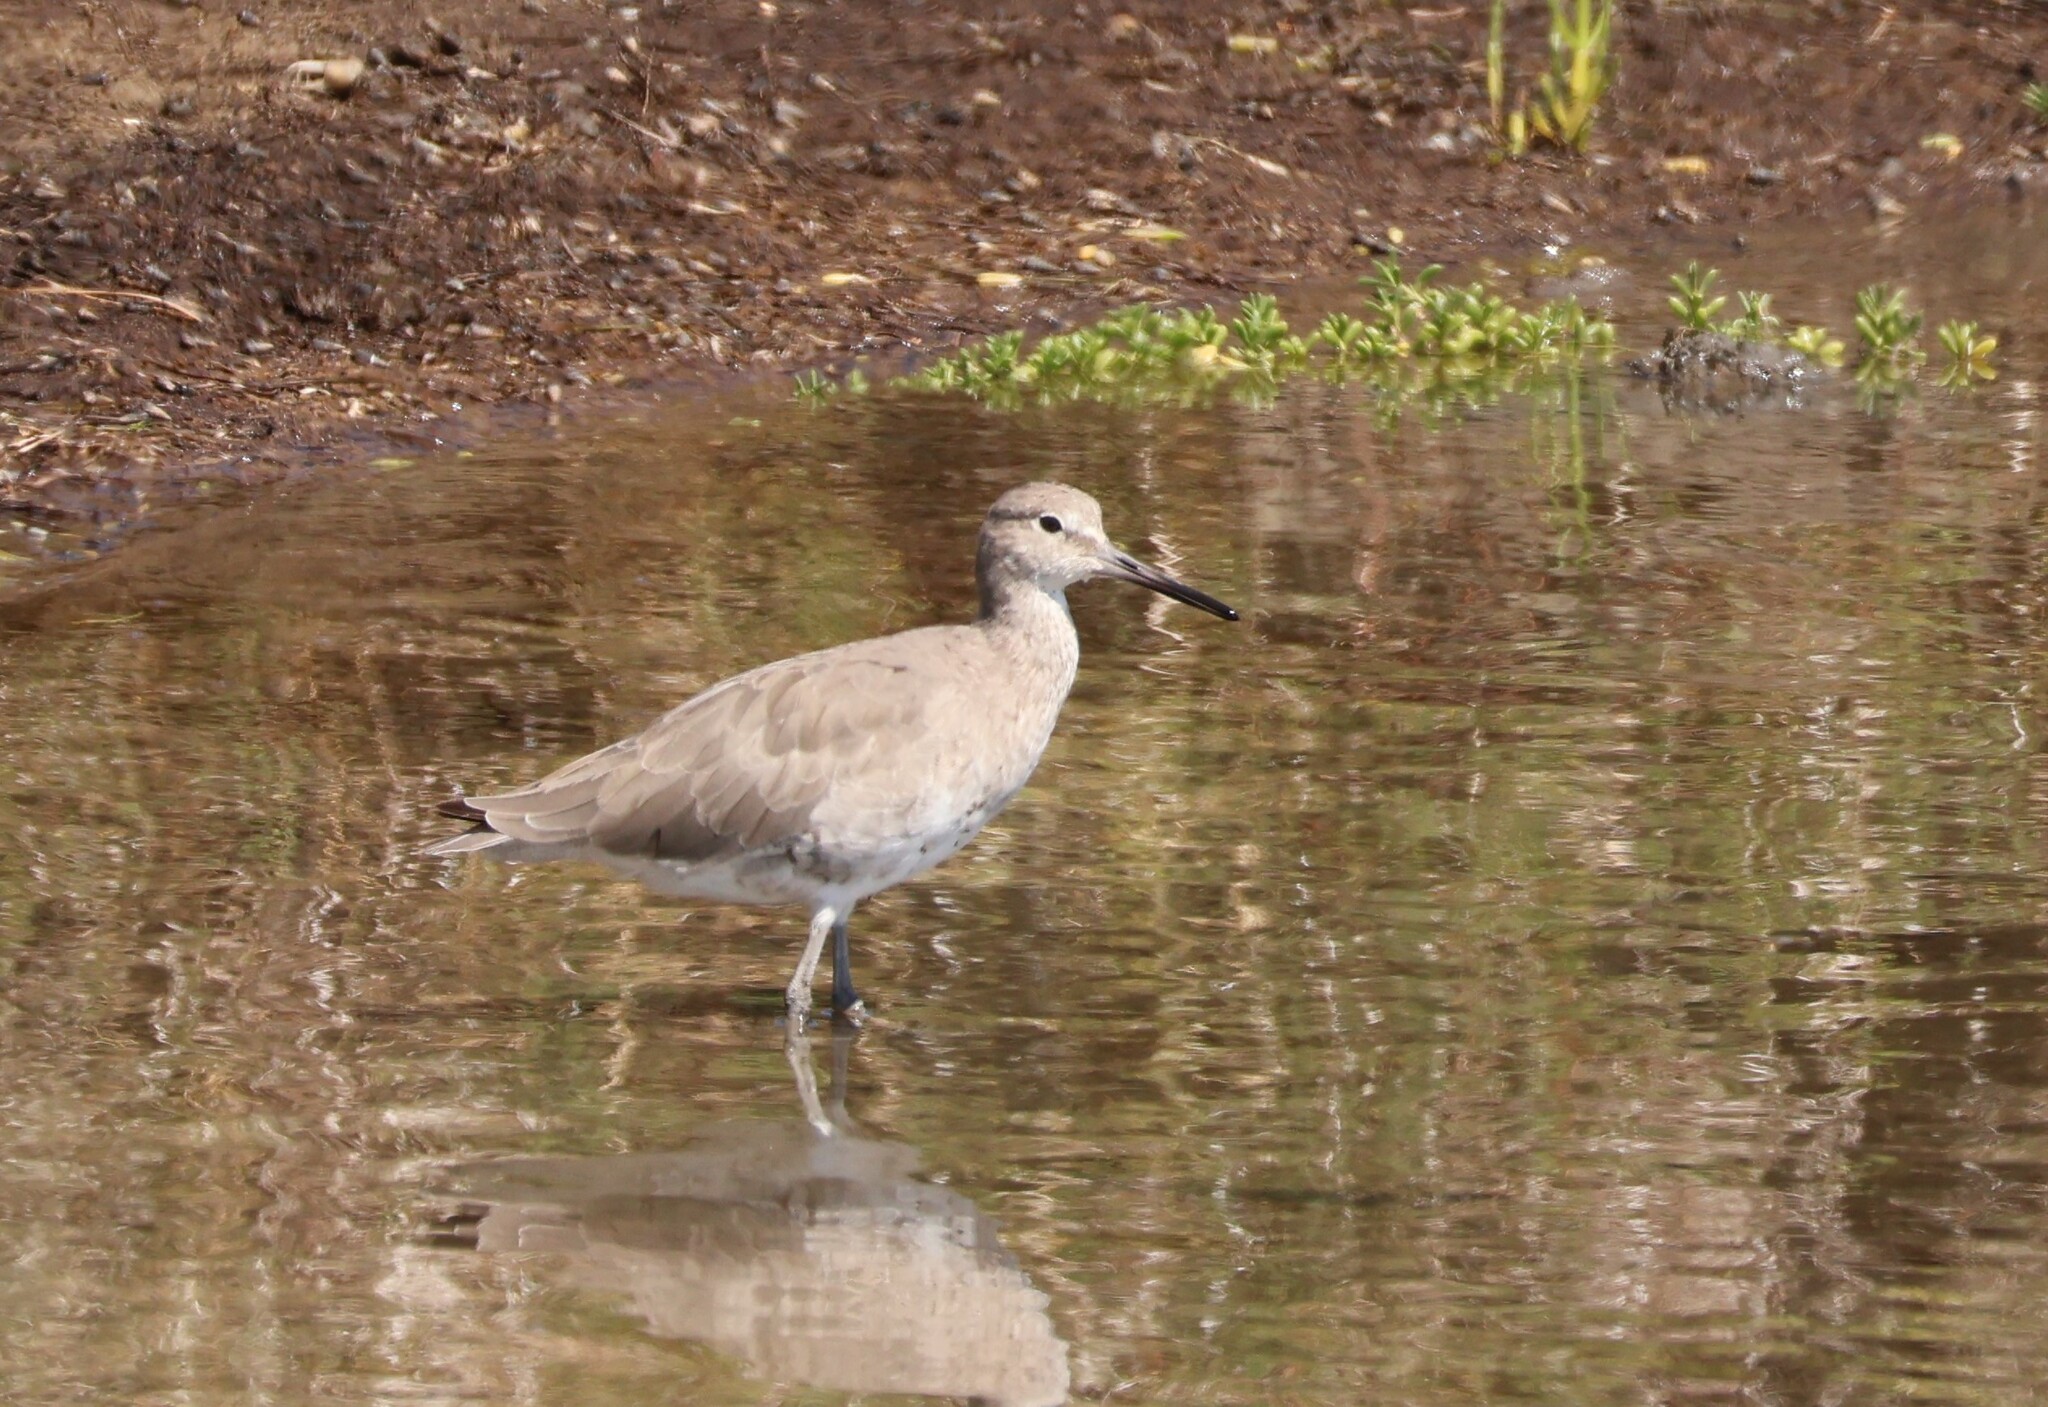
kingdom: Animalia
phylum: Chordata
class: Aves
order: Charadriiformes
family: Scolopacidae
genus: Tringa
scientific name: Tringa semipalmata
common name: Willet
